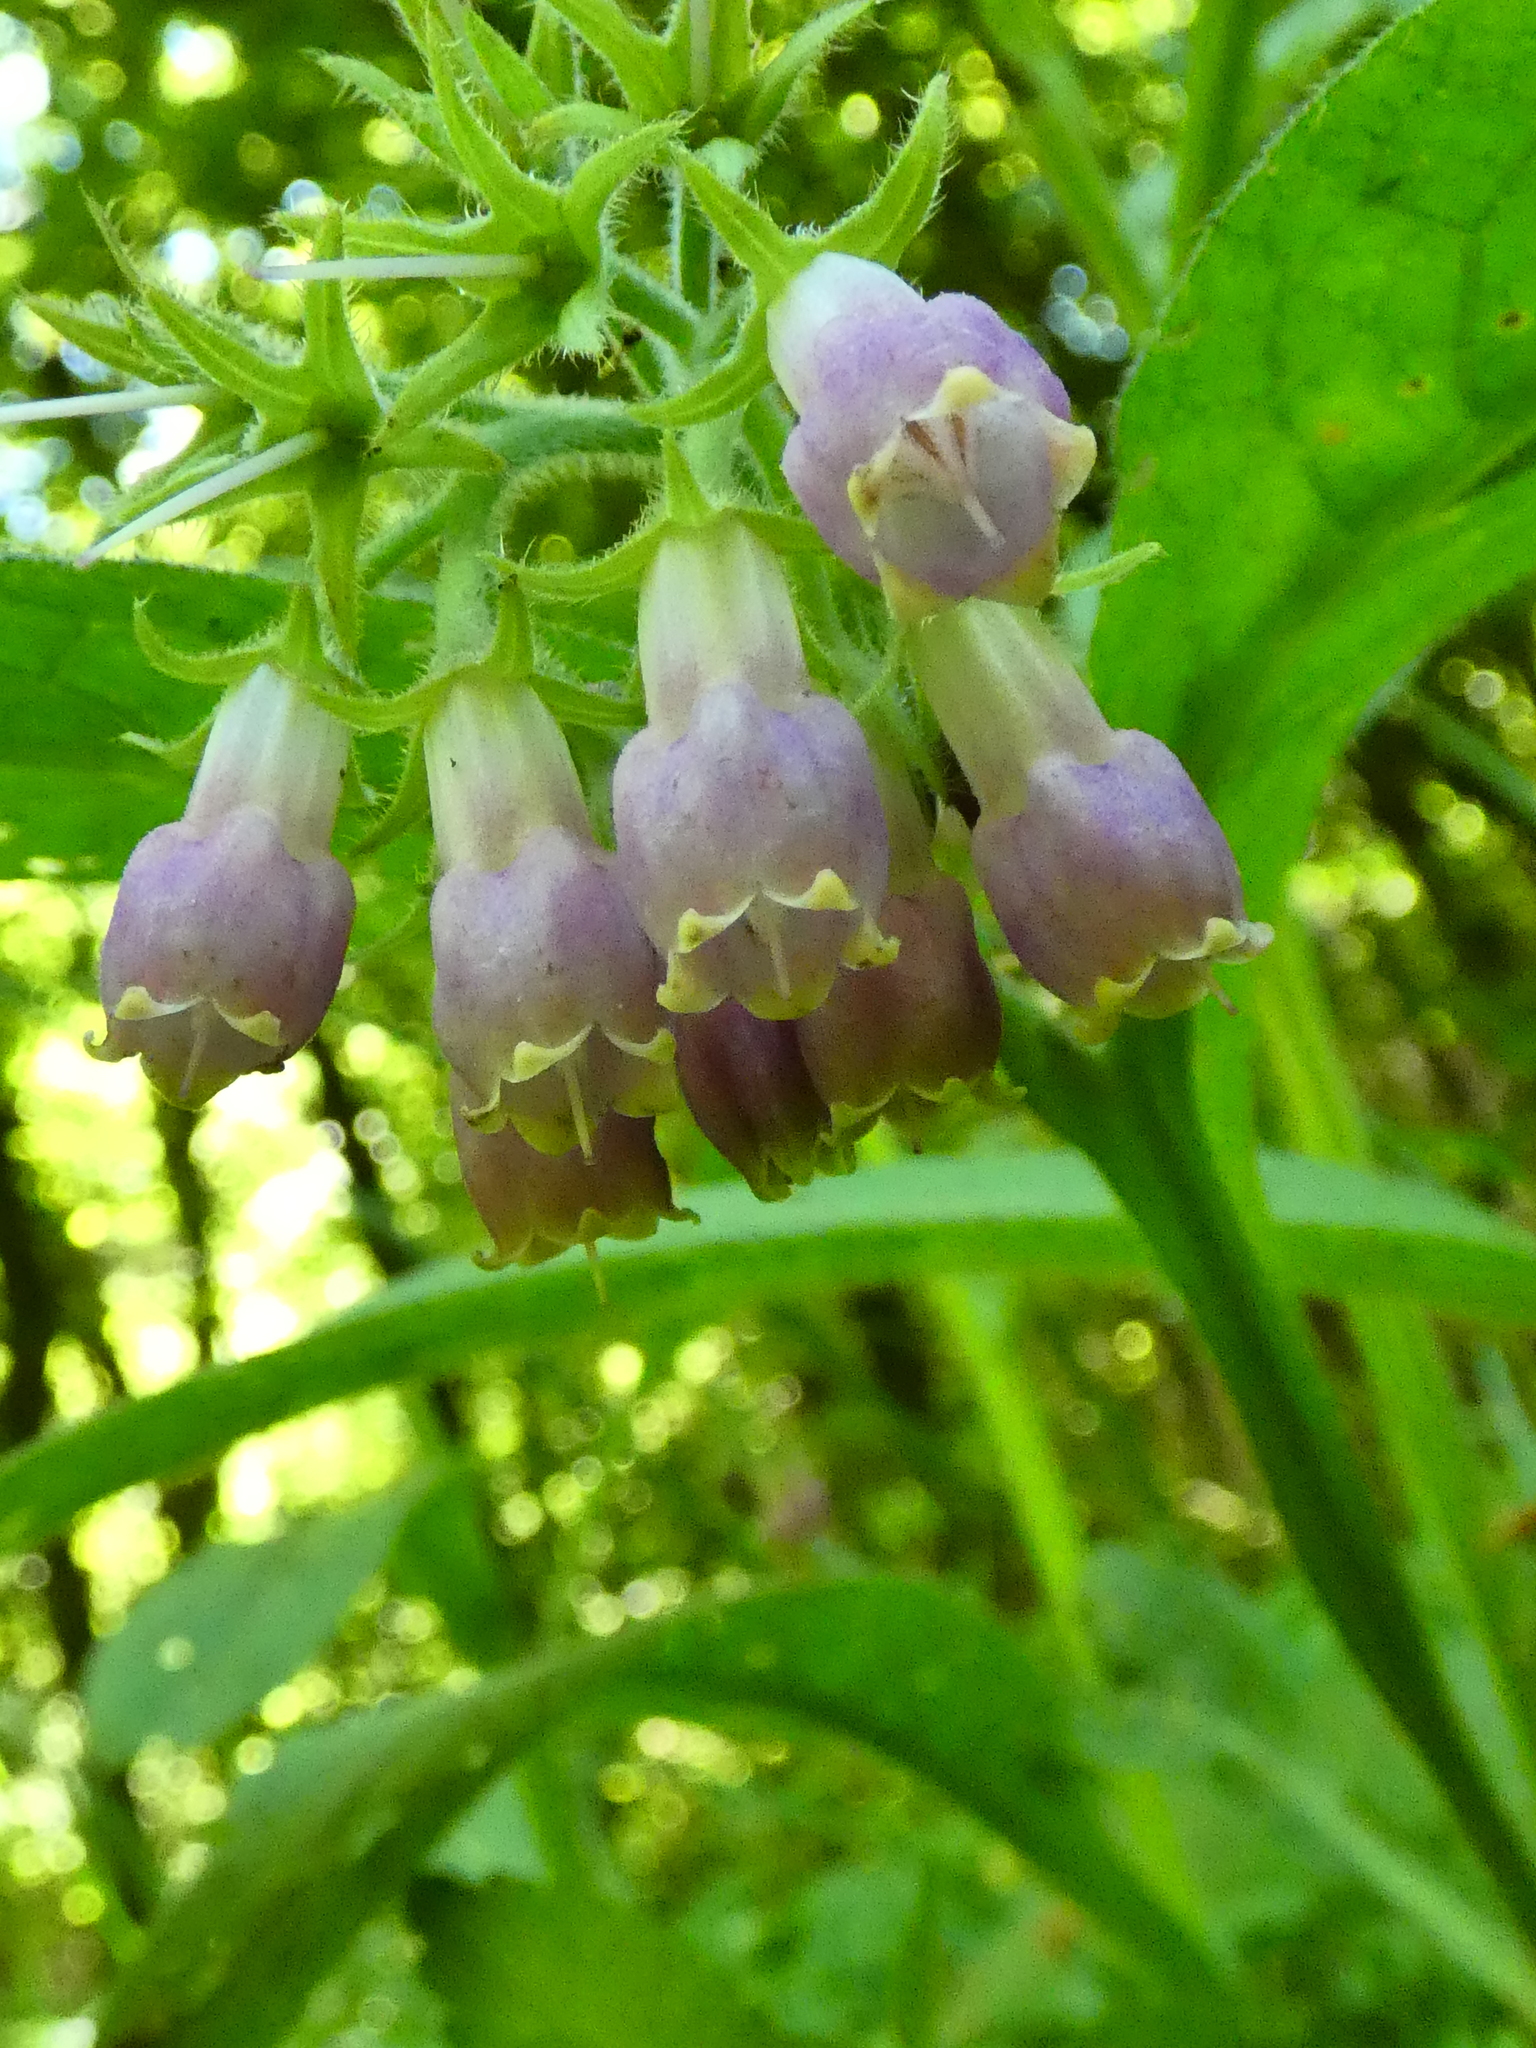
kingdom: Plantae
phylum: Tracheophyta
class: Magnoliopsida
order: Boraginales
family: Boraginaceae
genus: Symphytum
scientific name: Symphytum officinale
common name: Common comfrey
